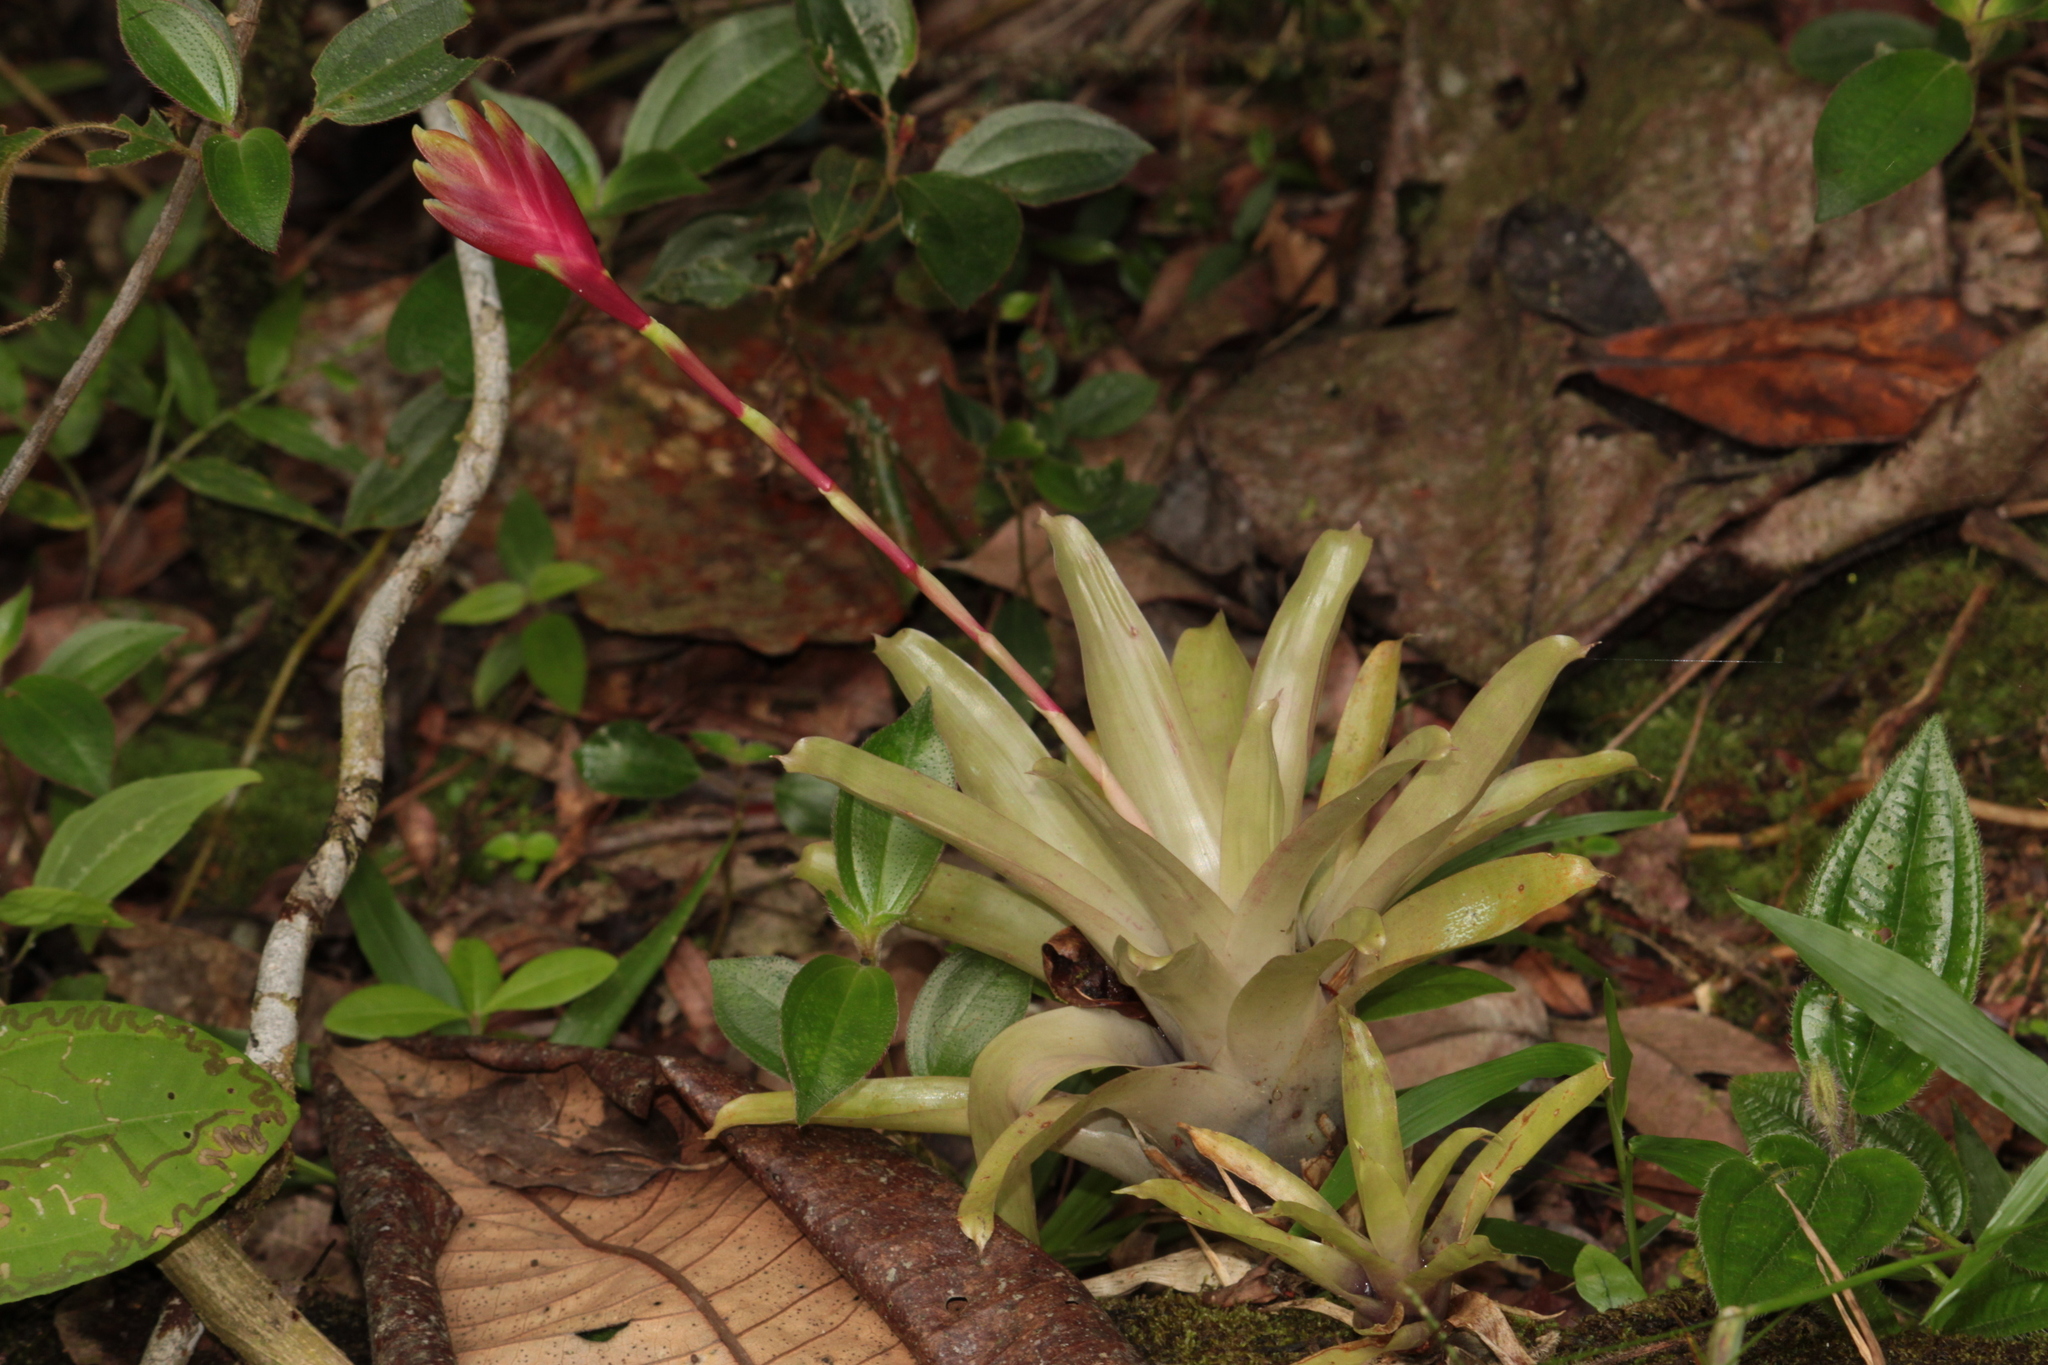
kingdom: Plantae
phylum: Tracheophyta
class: Liliopsida
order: Poales
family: Bromeliaceae
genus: Vriesea
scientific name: Vriesea carinata
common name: Lobster-claws
